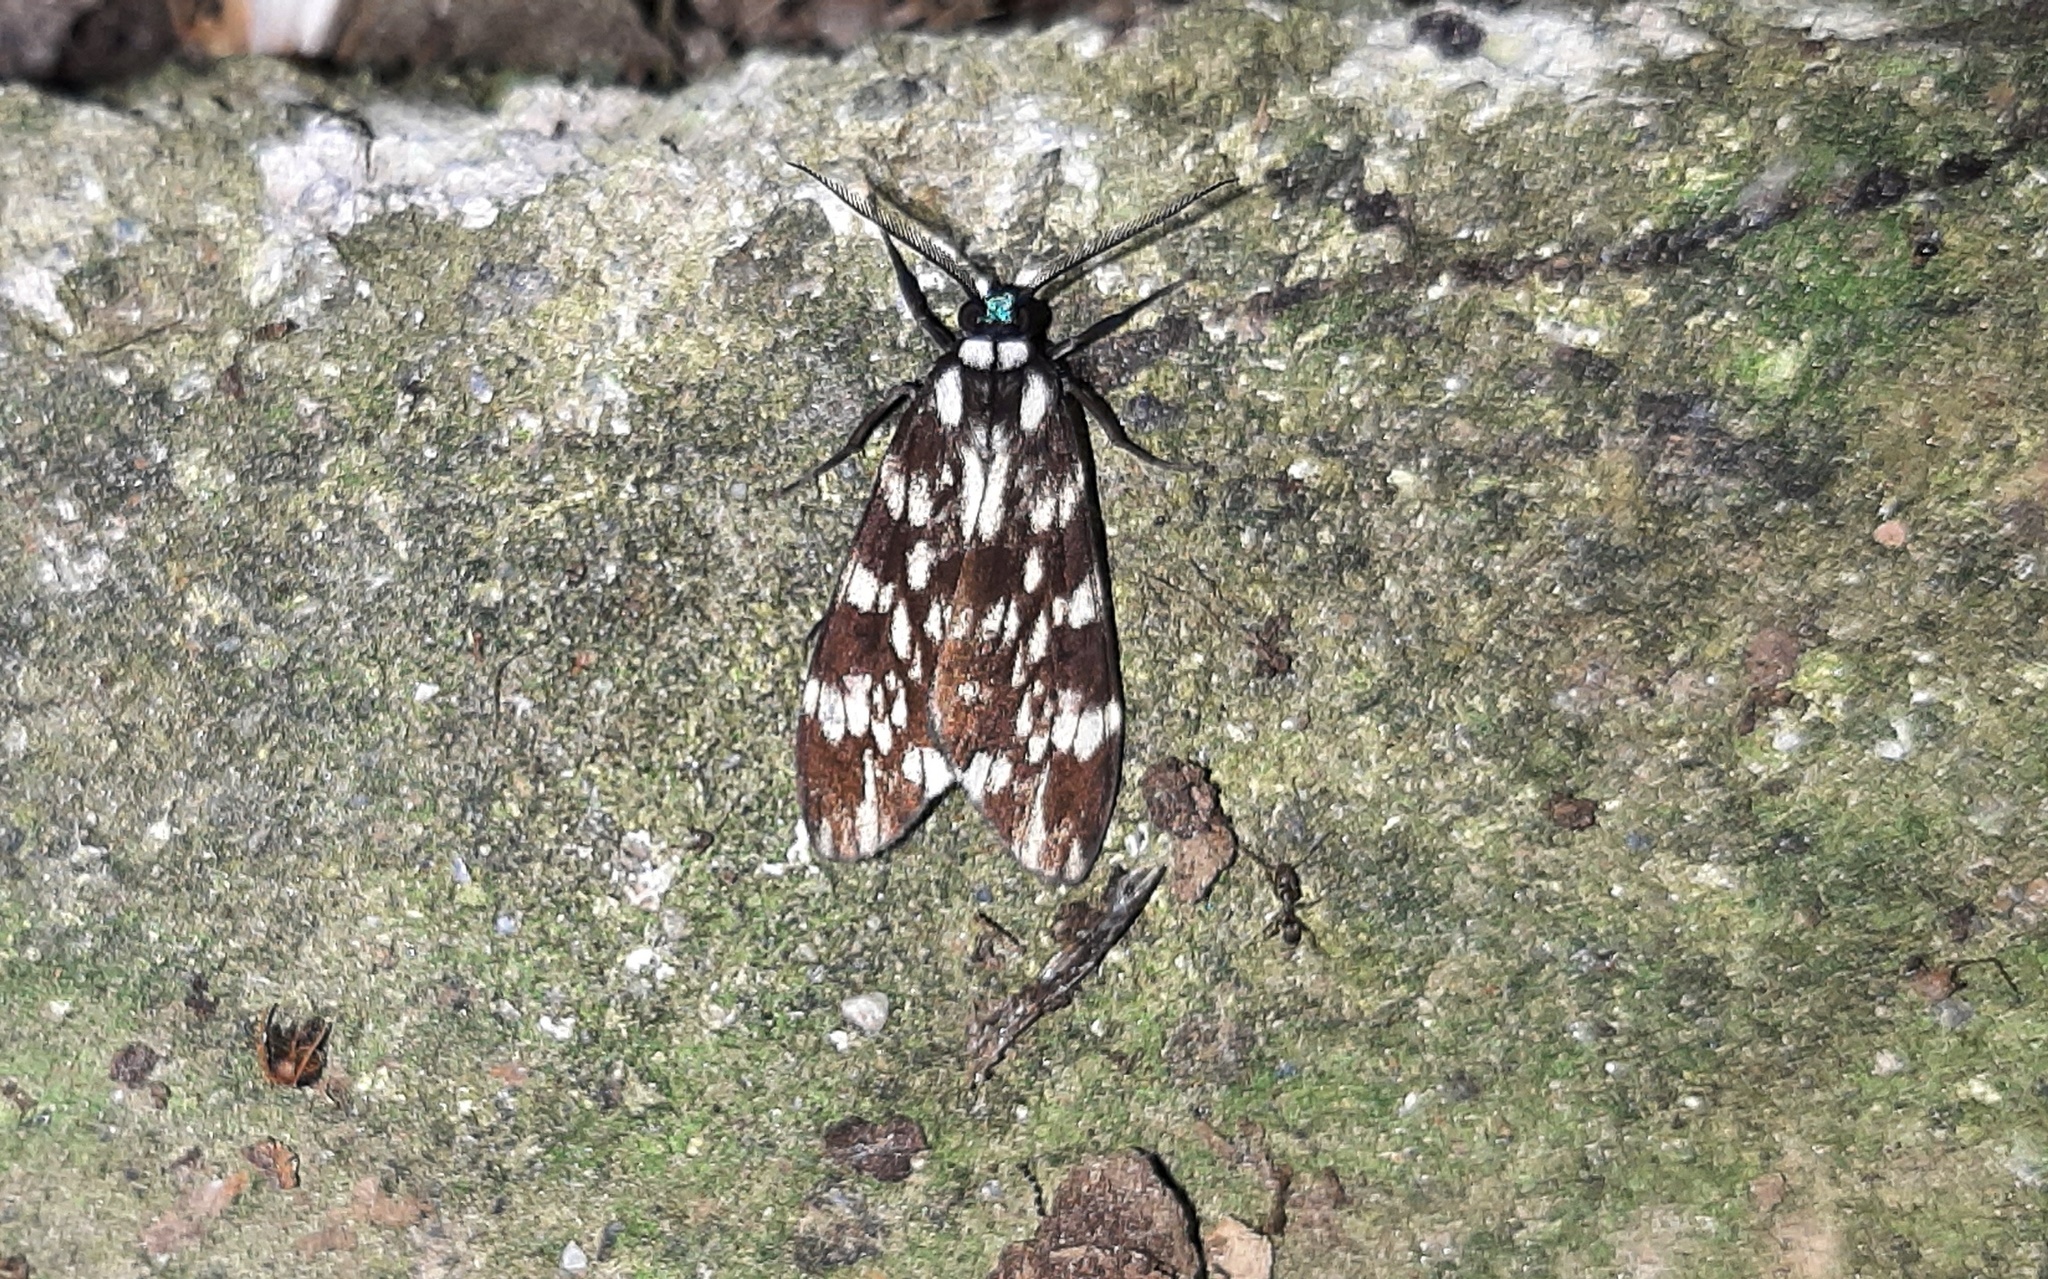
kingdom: Animalia
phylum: Arthropoda
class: Insecta
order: Lepidoptera
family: Erebidae
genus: Eucereon
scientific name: Eucereon coeruleocaput
